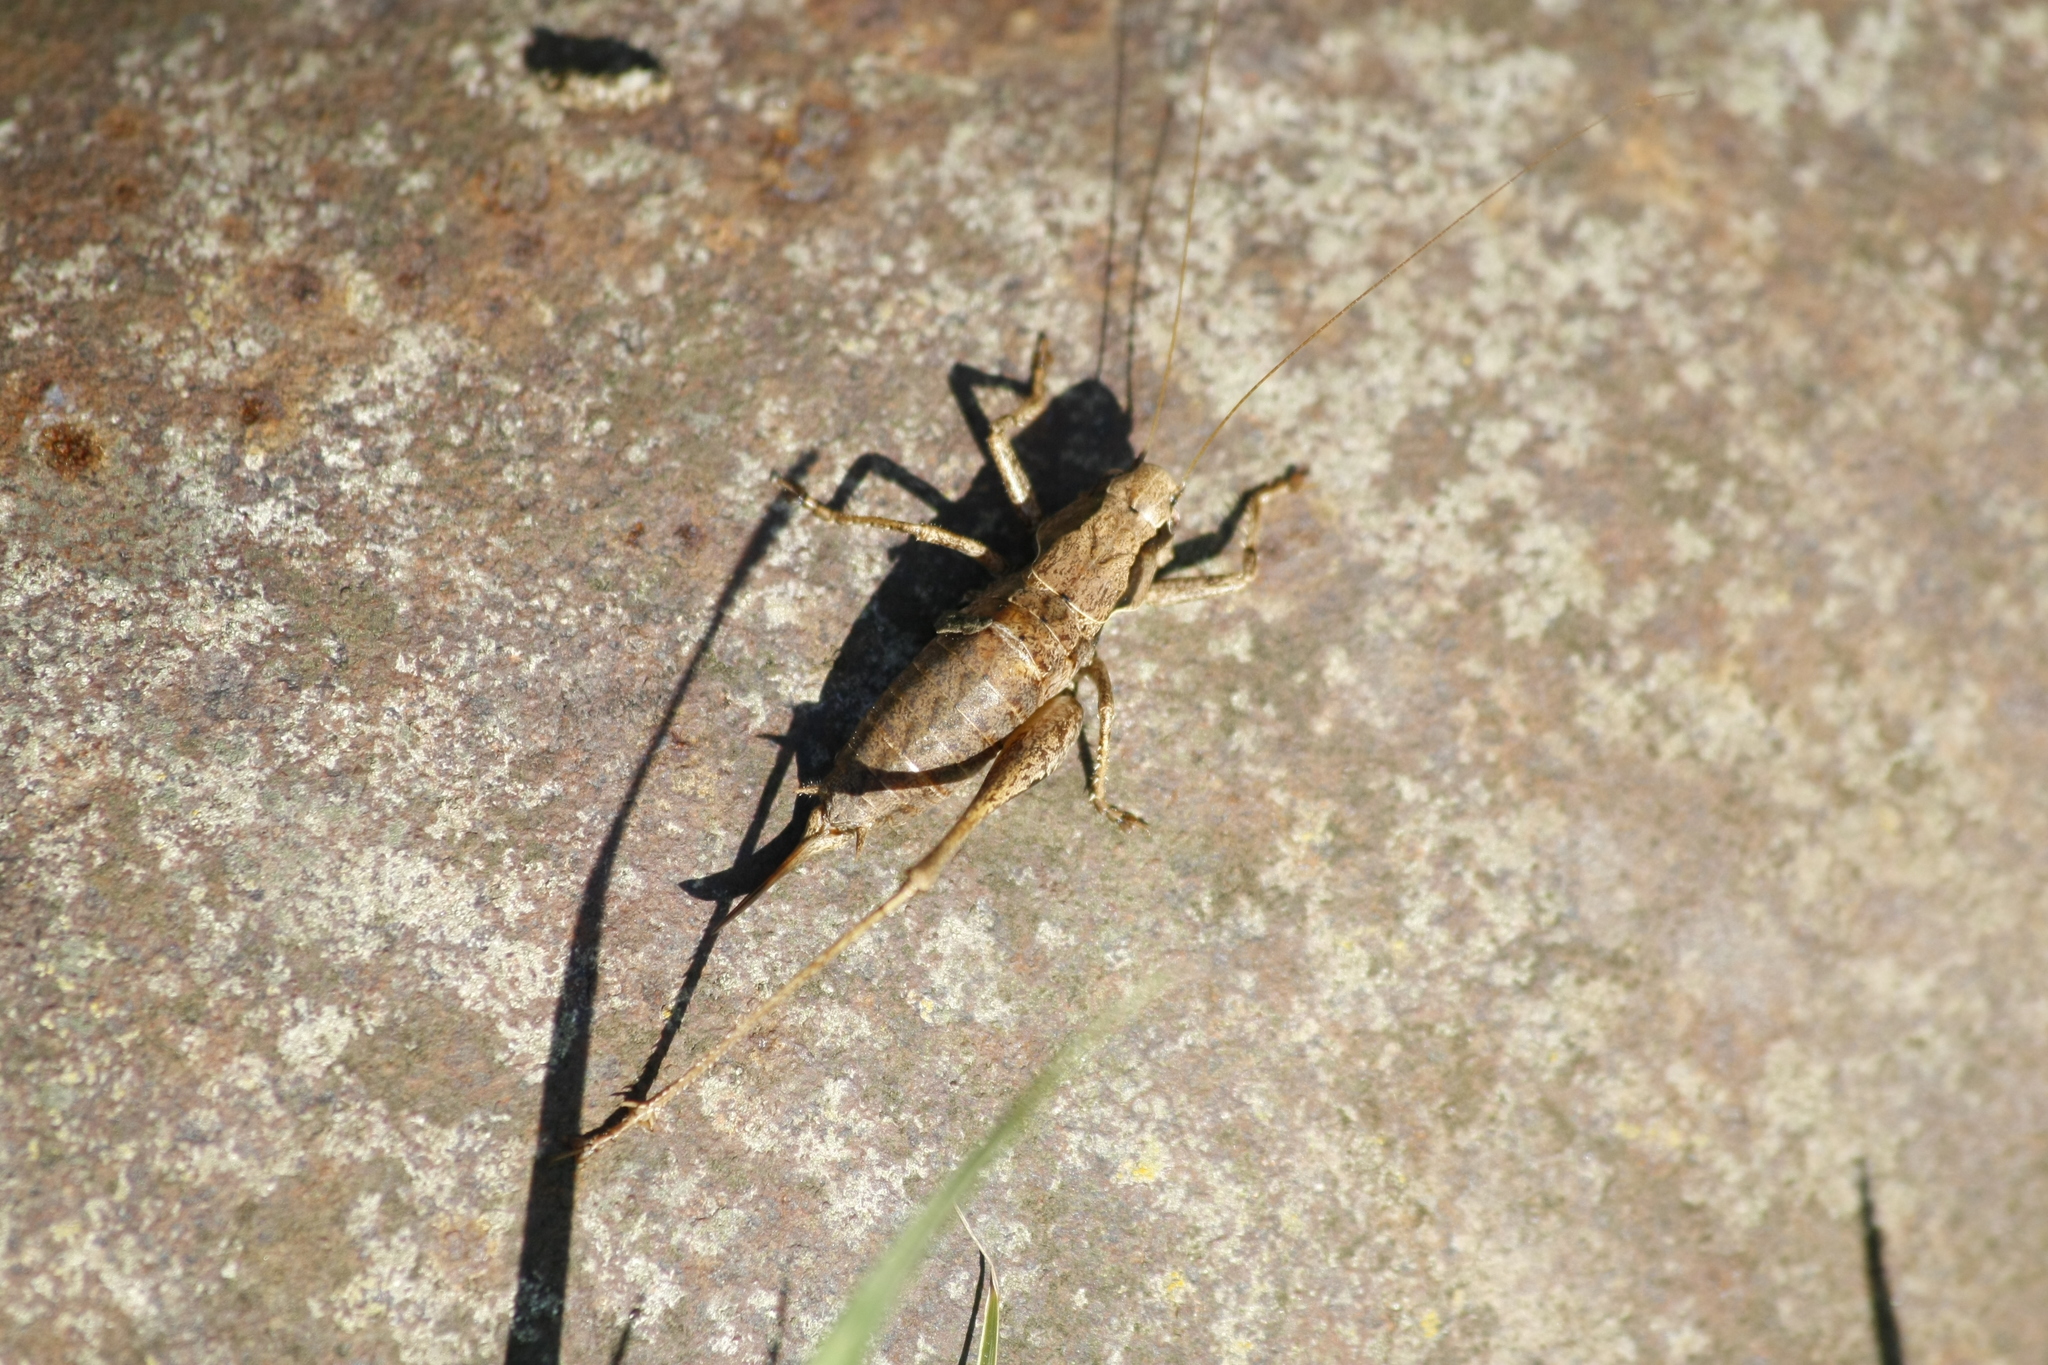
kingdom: Animalia
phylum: Arthropoda
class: Insecta
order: Orthoptera
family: Tettigoniidae
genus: Pholidoptera
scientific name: Pholidoptera griseoaptera
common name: Dark bush-cricket
